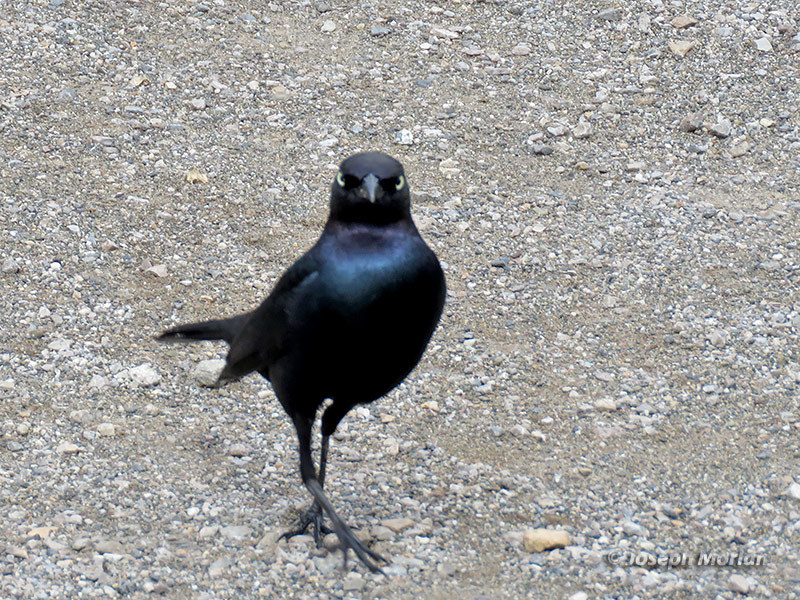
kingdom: Animalia
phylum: Chordata
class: Aves
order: Passeriformes
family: Icteridae
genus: Euphagus
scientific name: Euphagus cyanocephalus
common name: Brewer's blackbird
